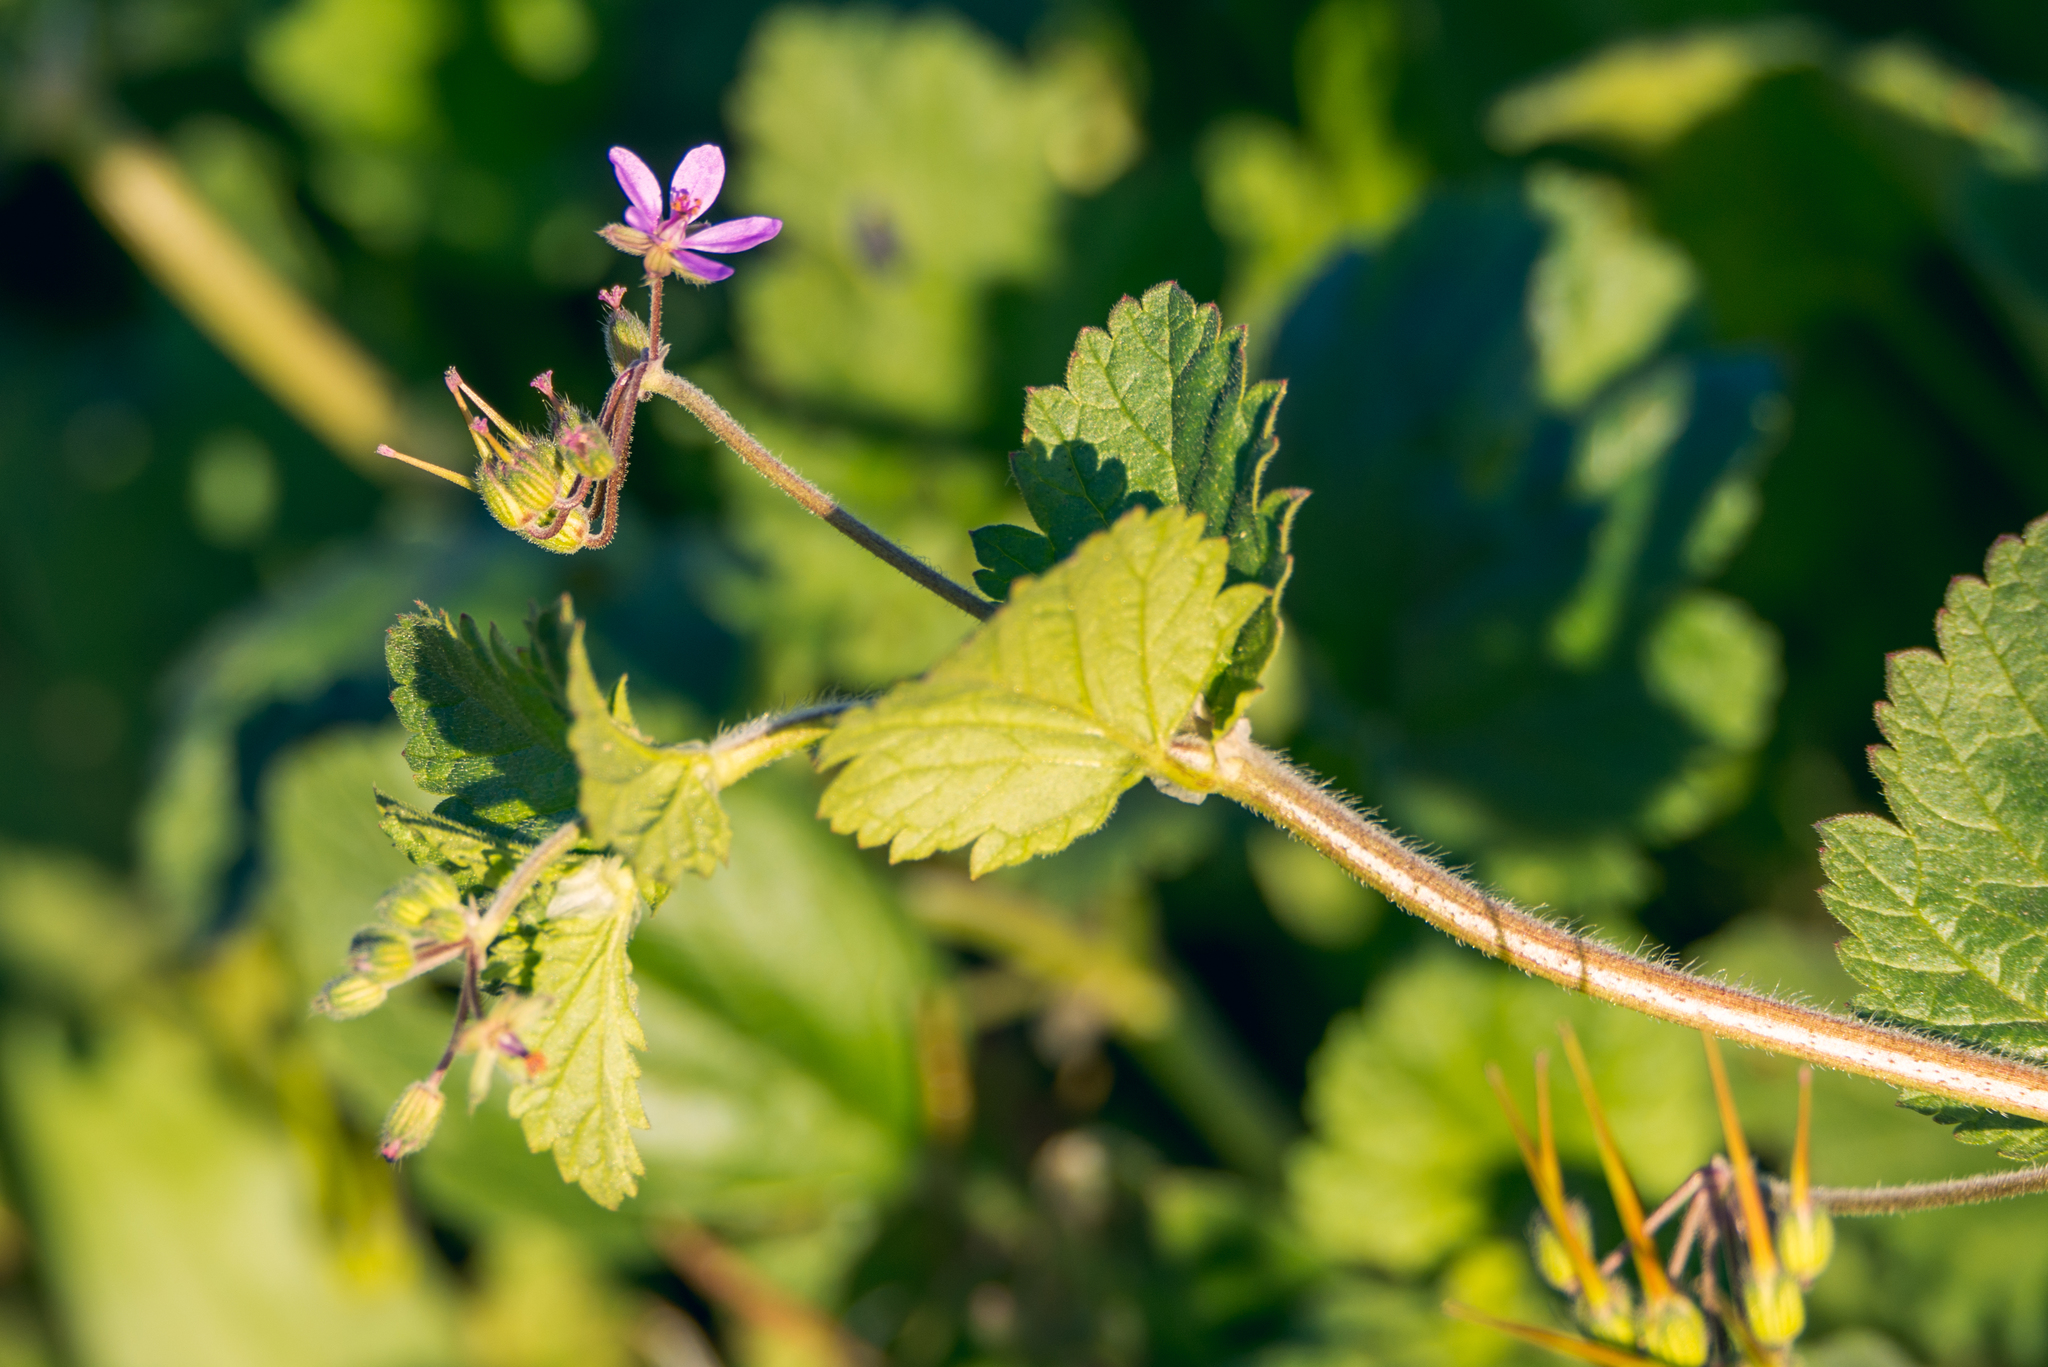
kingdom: Plantae
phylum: Tracheophyta
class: Magnoliopsida
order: Geraniales
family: Geraniaceae
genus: Erodium
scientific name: Erodium malacoides
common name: Soft stork's-bill
